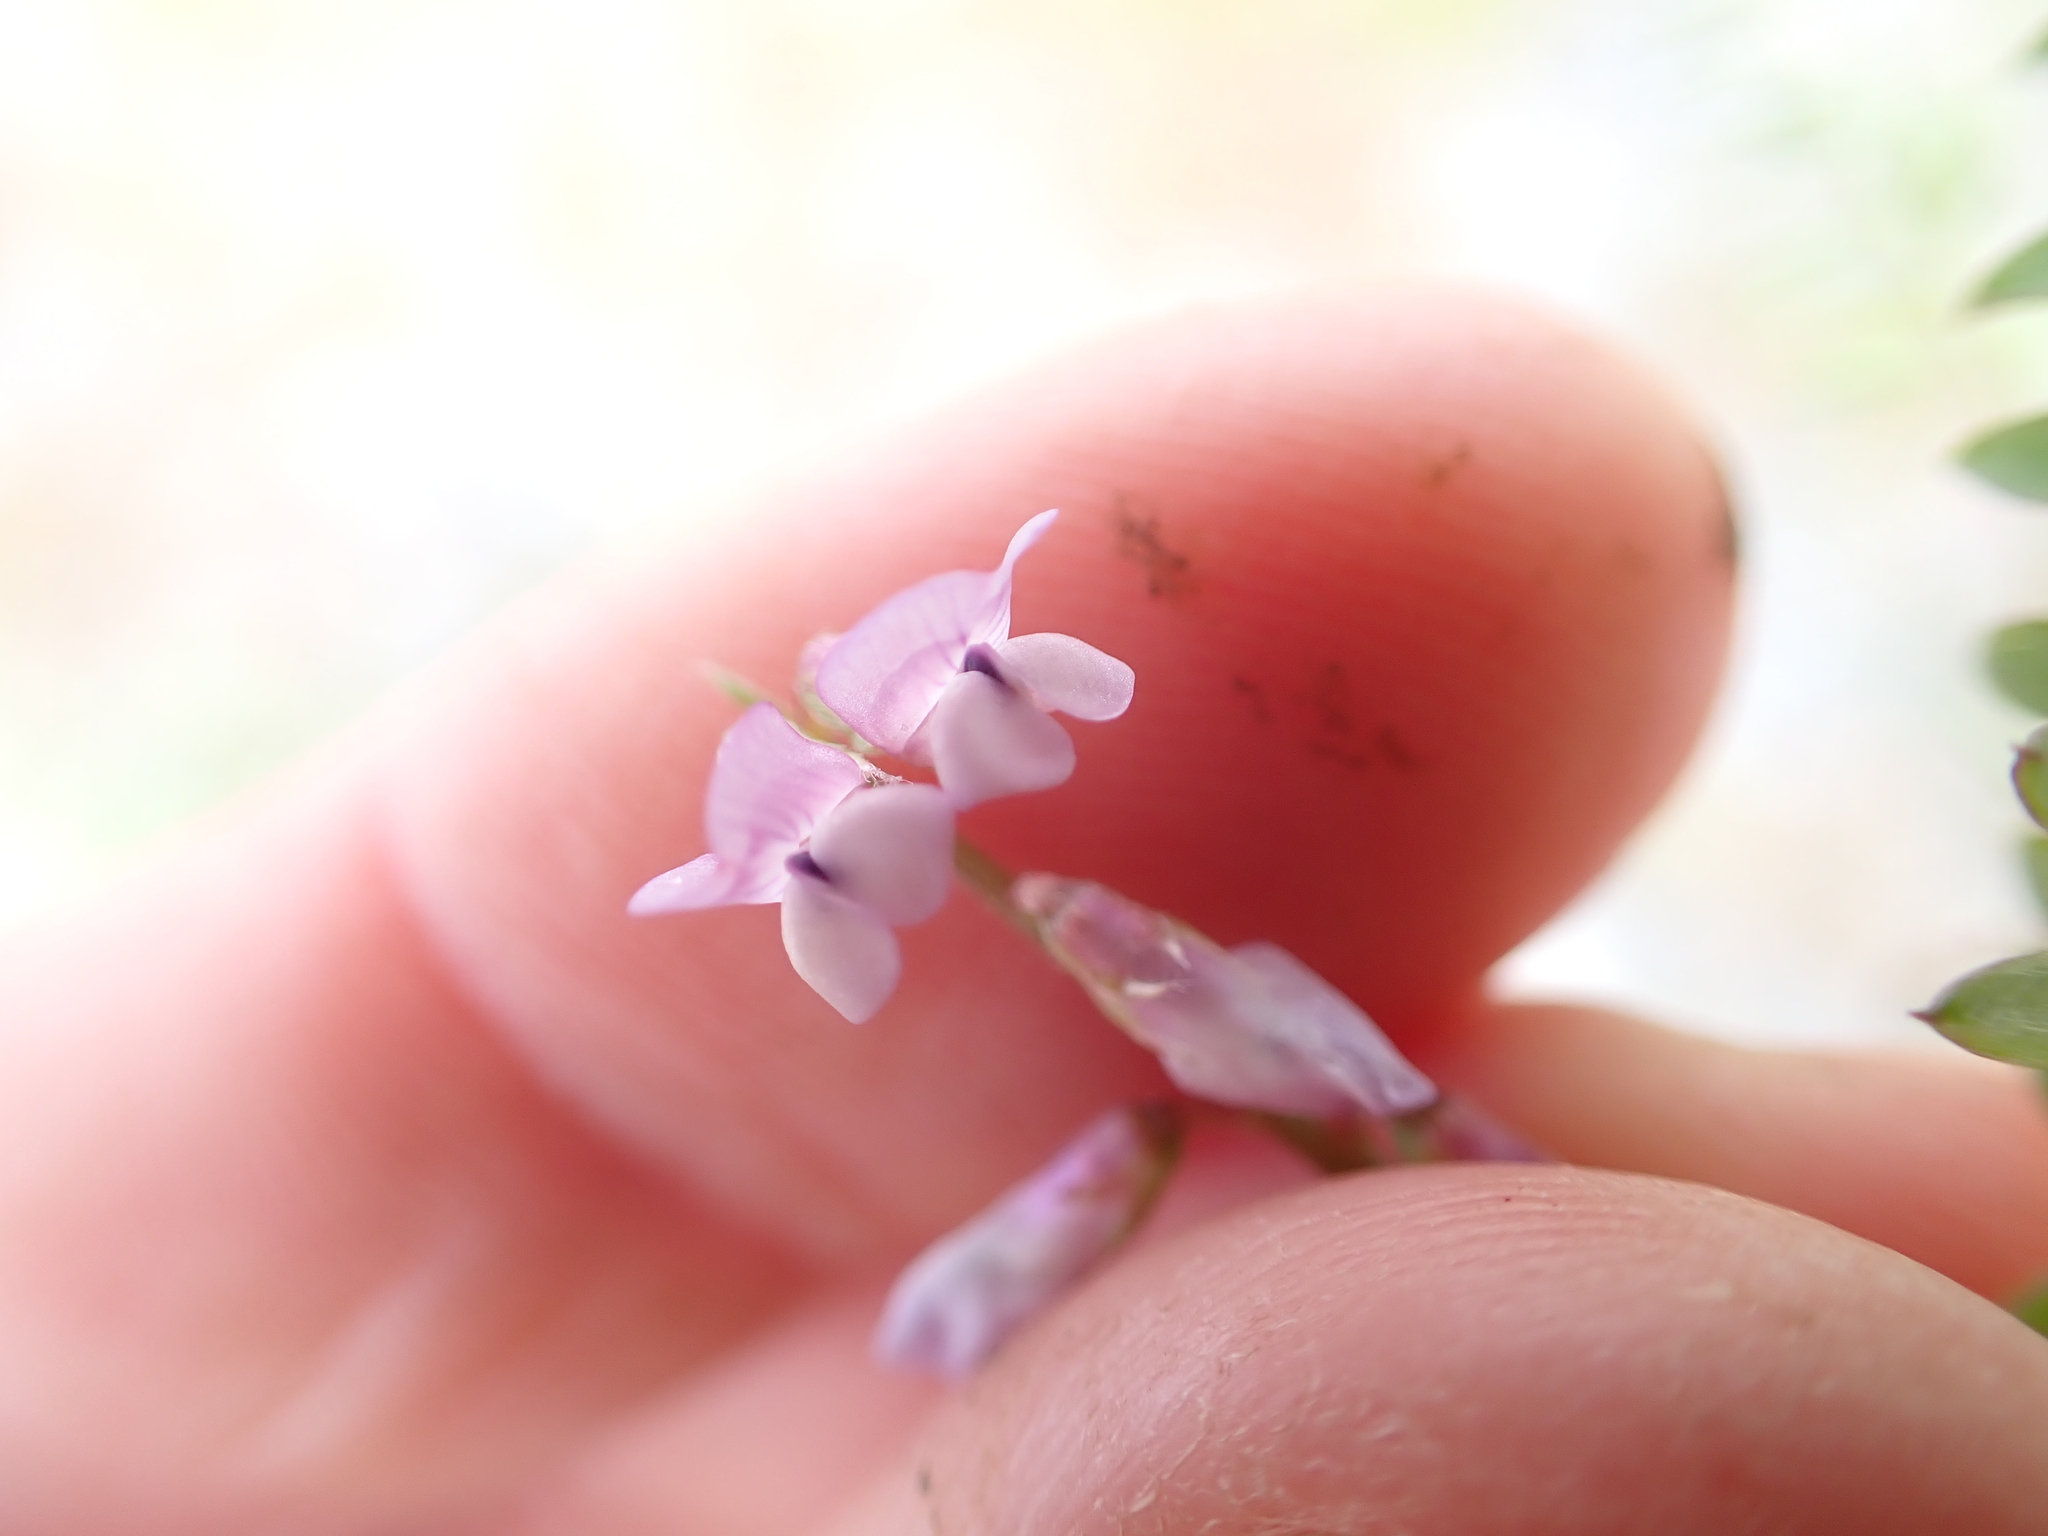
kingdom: Plantae
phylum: Tracheophyta
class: Magnoliopsida
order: Fabales
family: Fabaceae
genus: Vicia
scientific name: Vicia disperma
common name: European vetch
